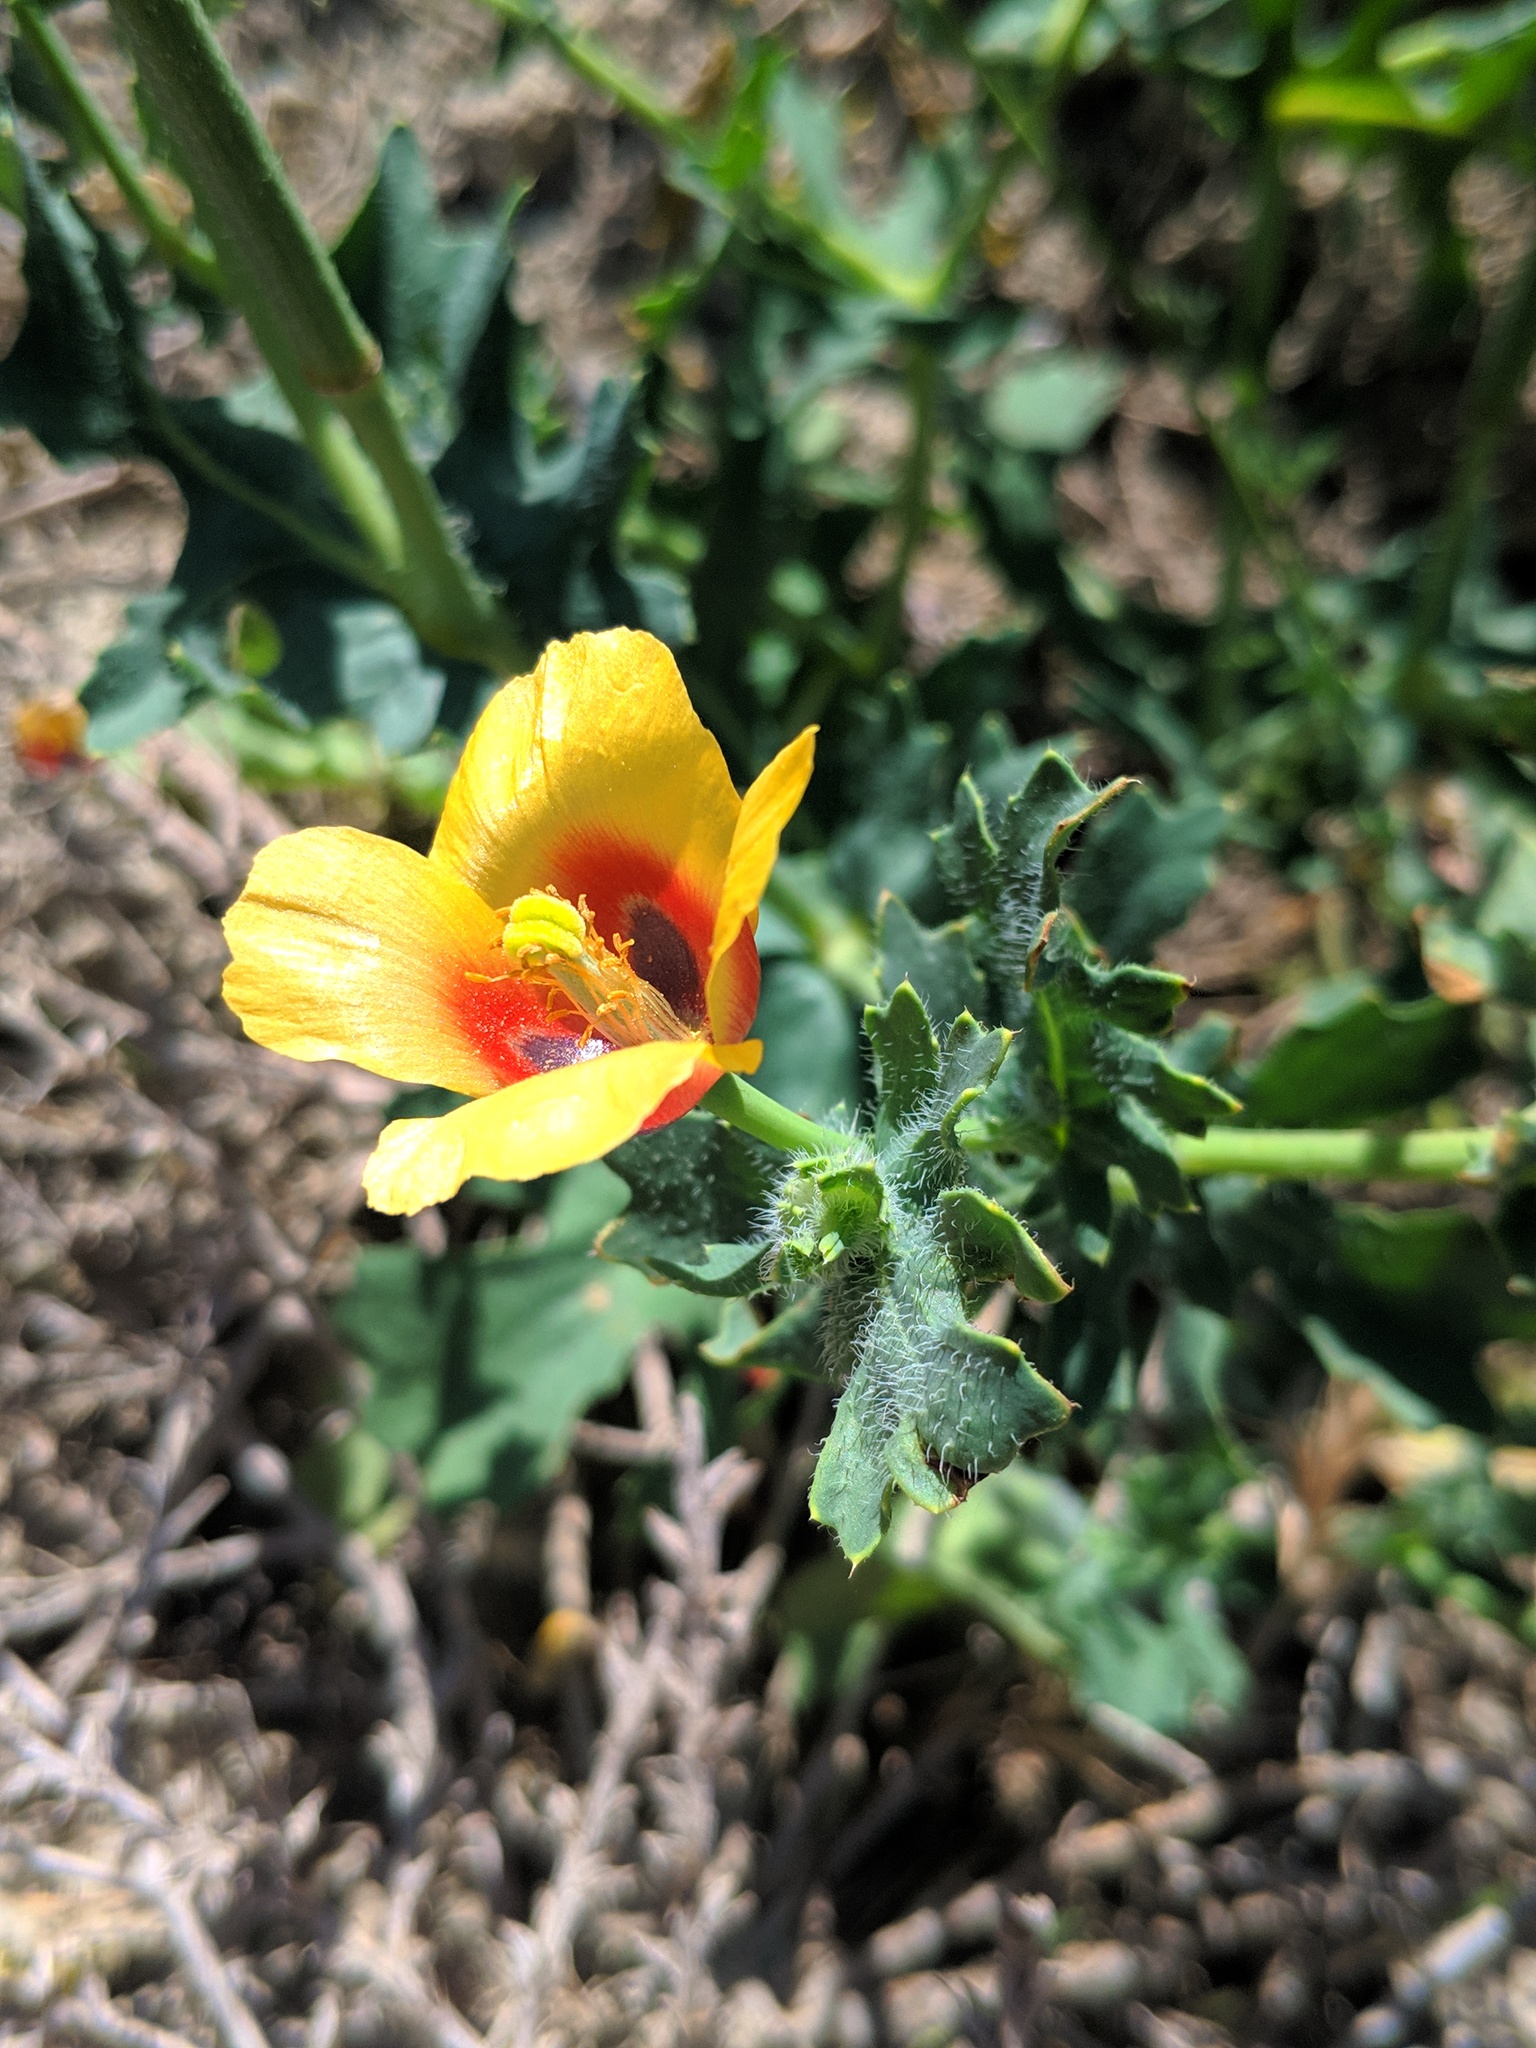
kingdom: Plantae
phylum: Tracheophyta
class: Magnoliopsida
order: Ranunculales
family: Papaveraceae
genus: Glaucium
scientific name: Glaucium corniculatum
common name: Red horned-poppy
